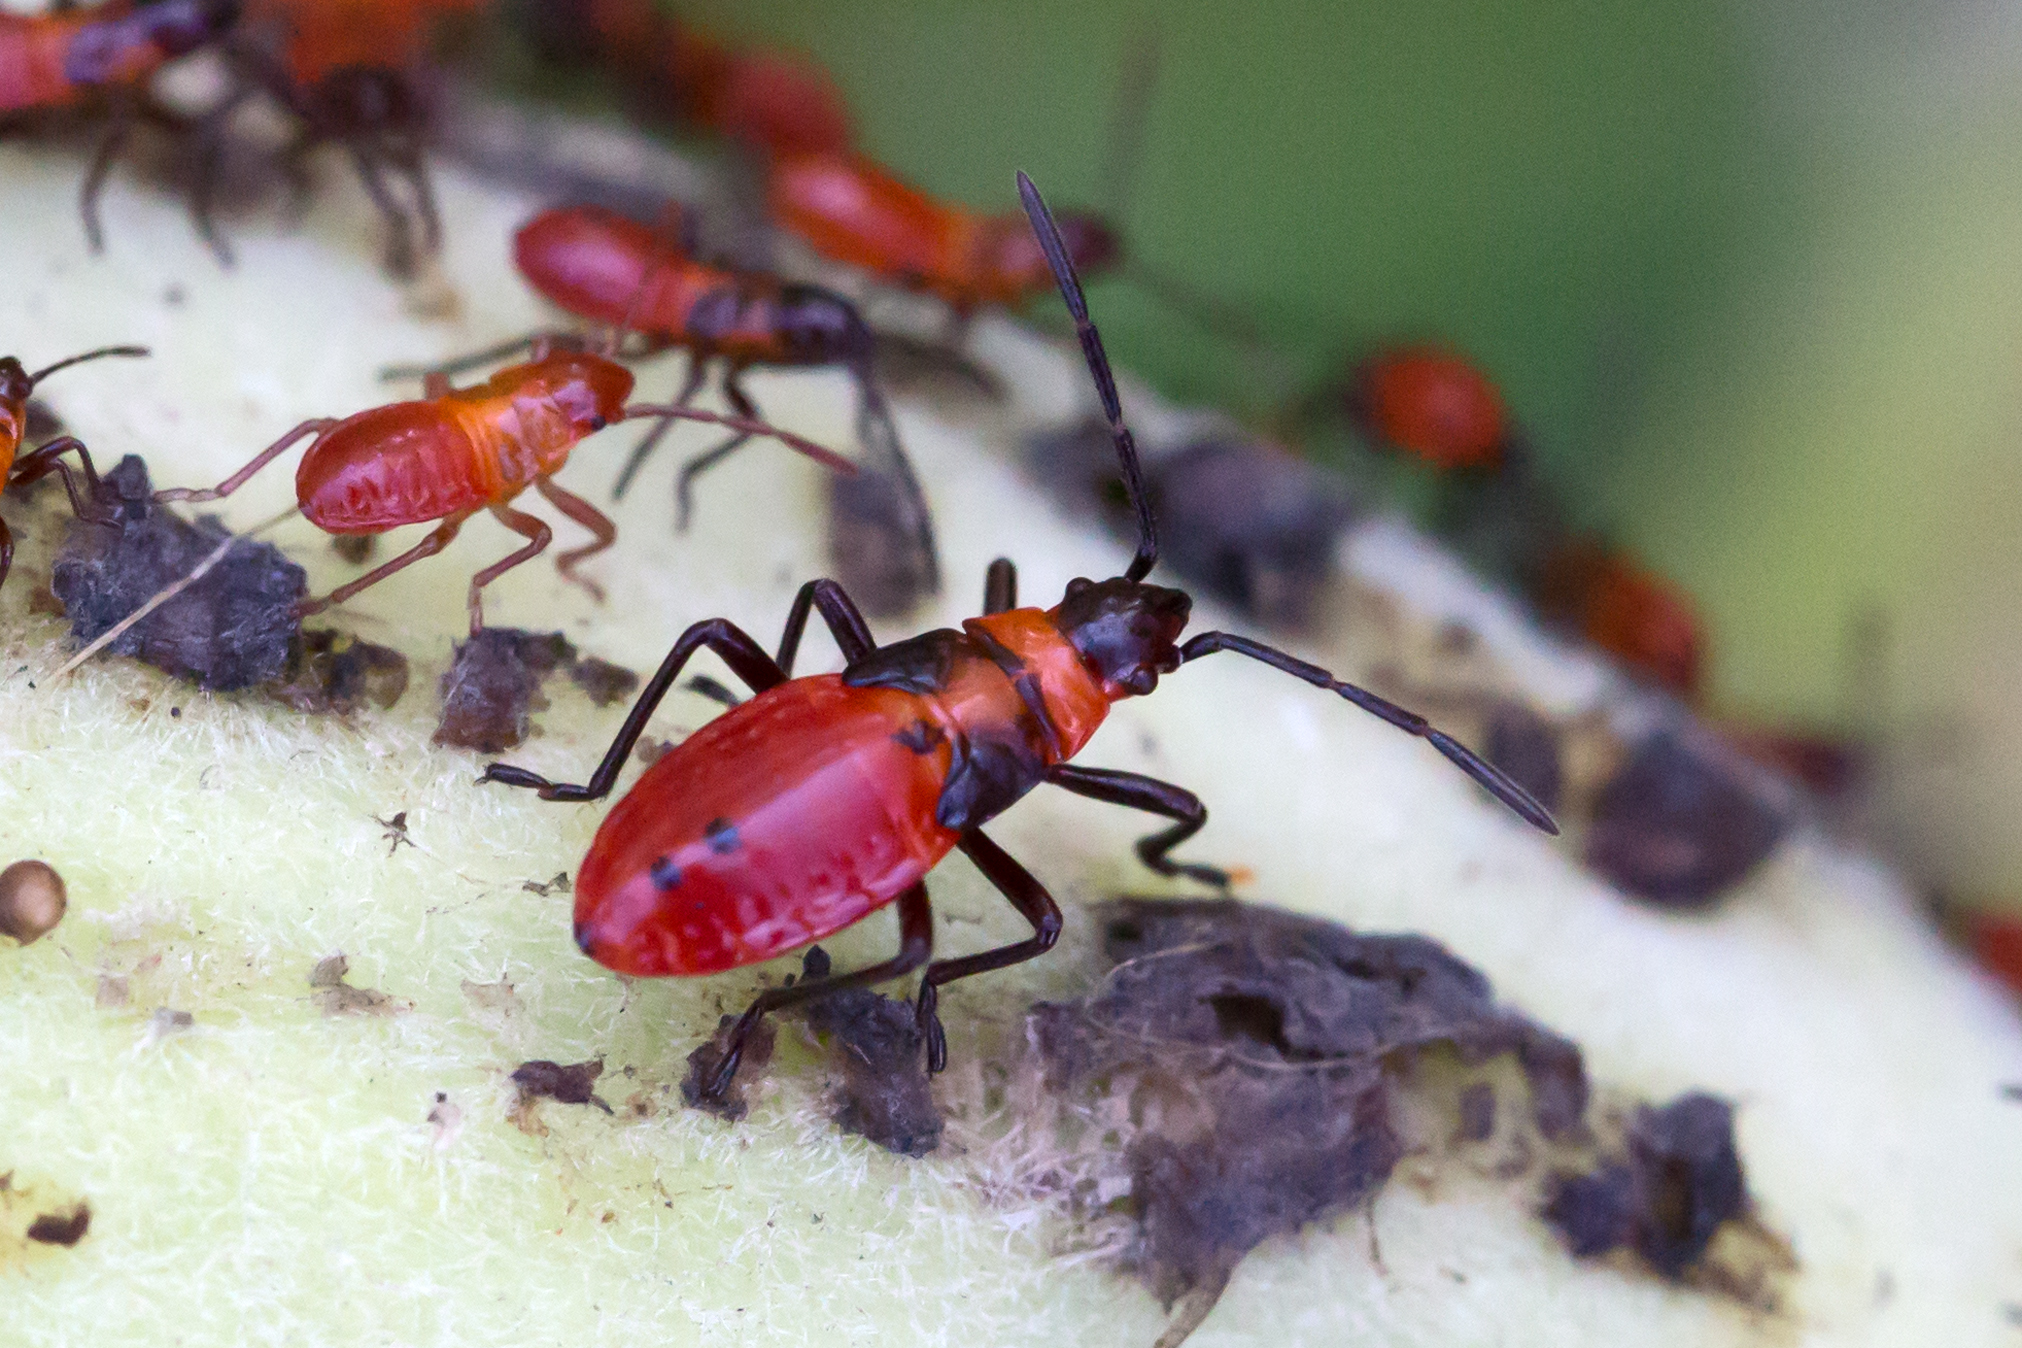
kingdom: Animalia
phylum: Arthropoda
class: Insecta
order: Hemiptera
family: Lygaeidae
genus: Oncopeltus
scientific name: Oncopeltus fasciatus
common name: Large milkweed bug
